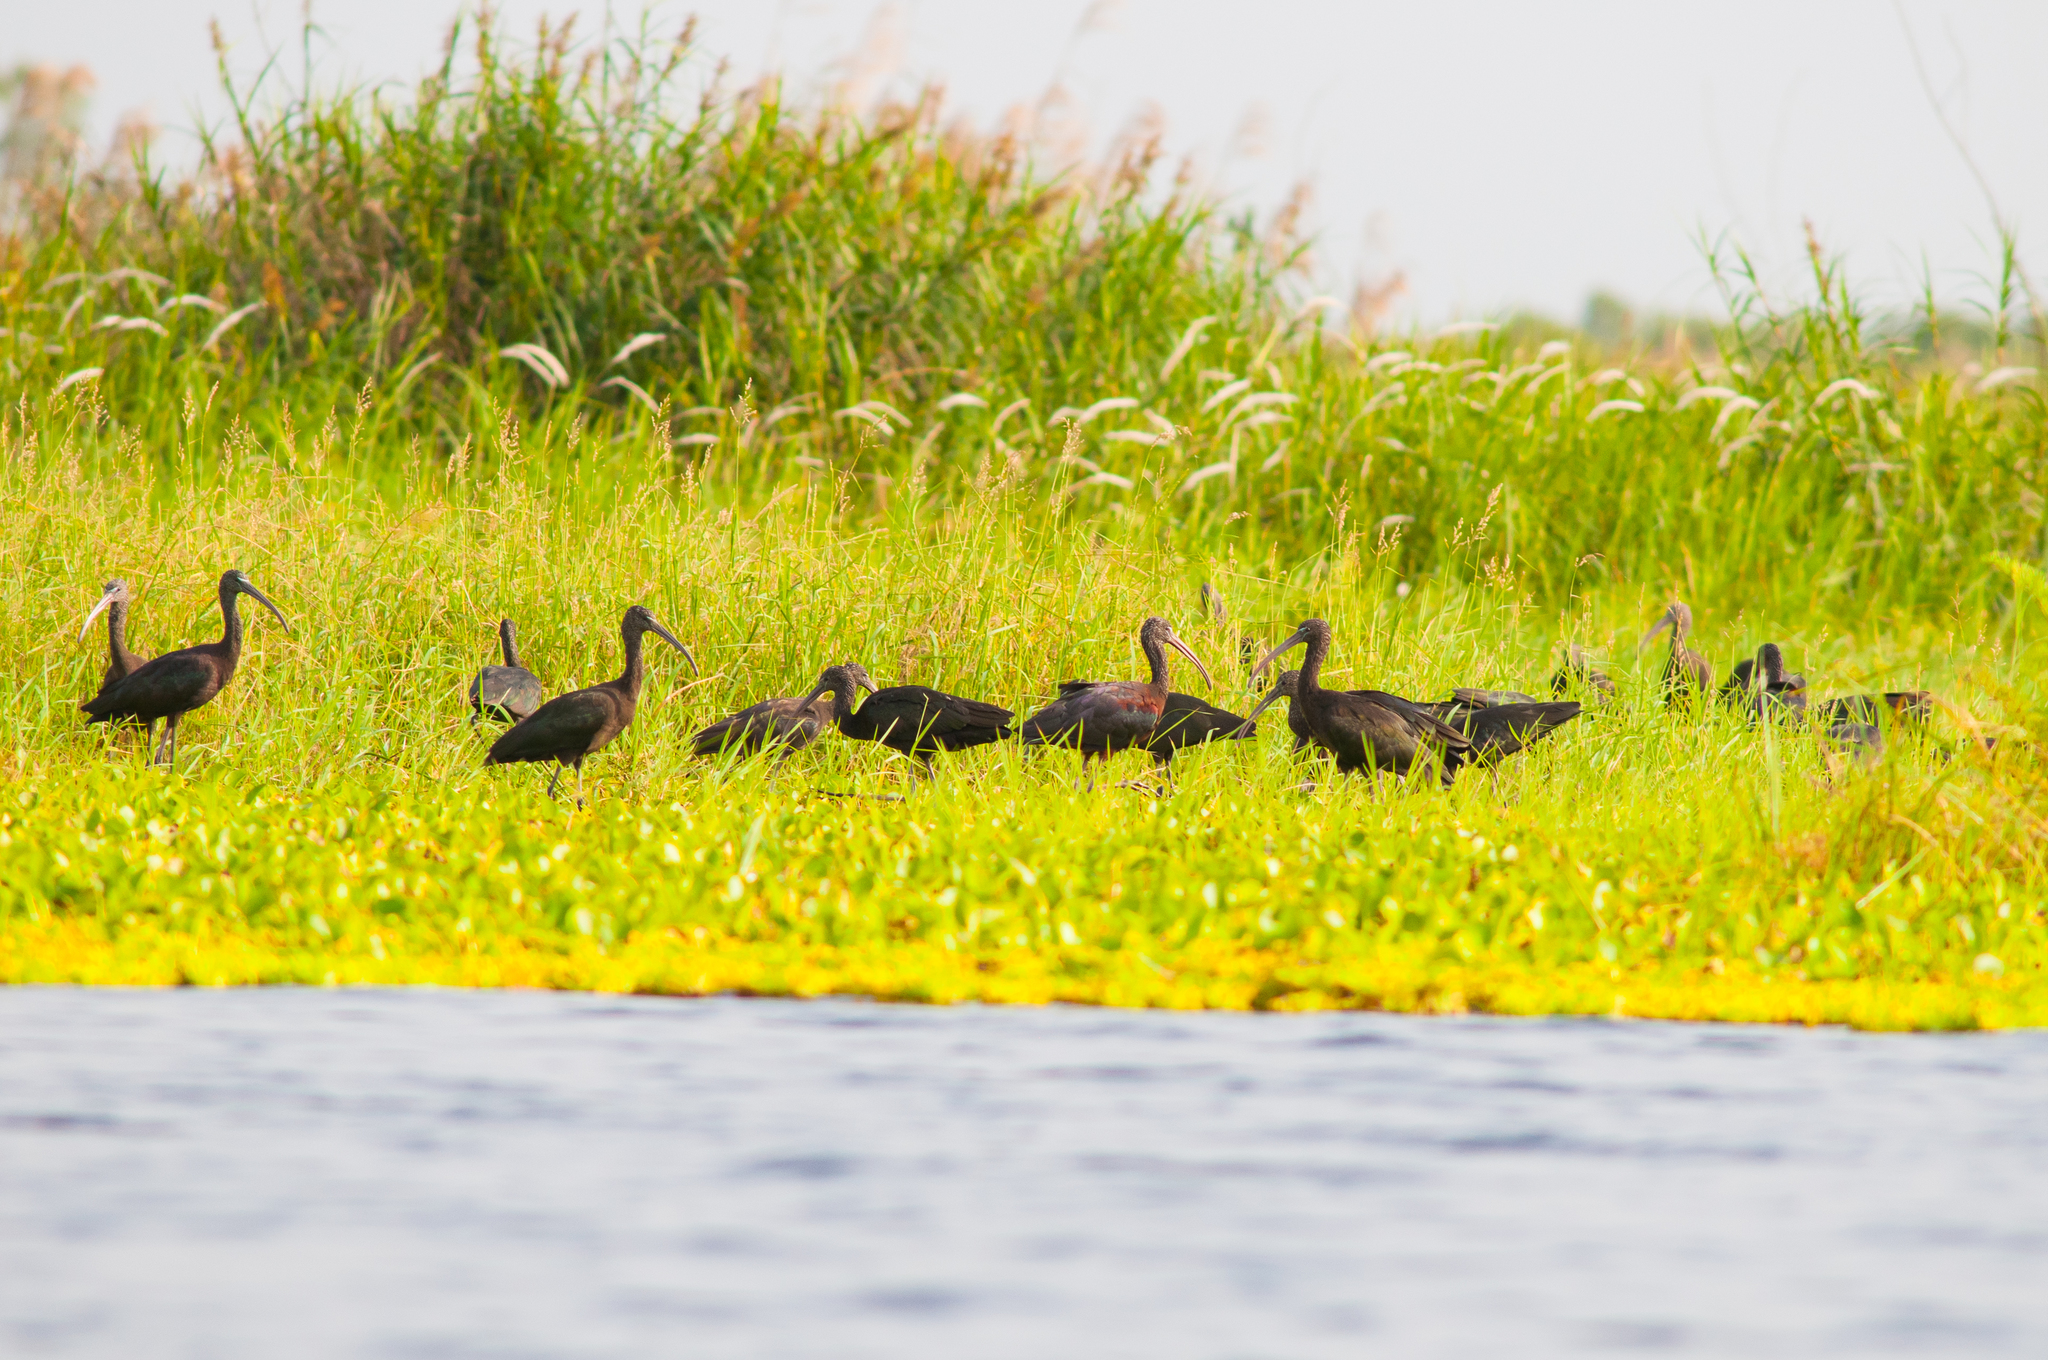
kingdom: Animalia
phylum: Chordata
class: Aves
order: Pelecaniformes
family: Threskiornithidae
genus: Plegadis
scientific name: Plegadis falcinellus
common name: Glossy ibis
